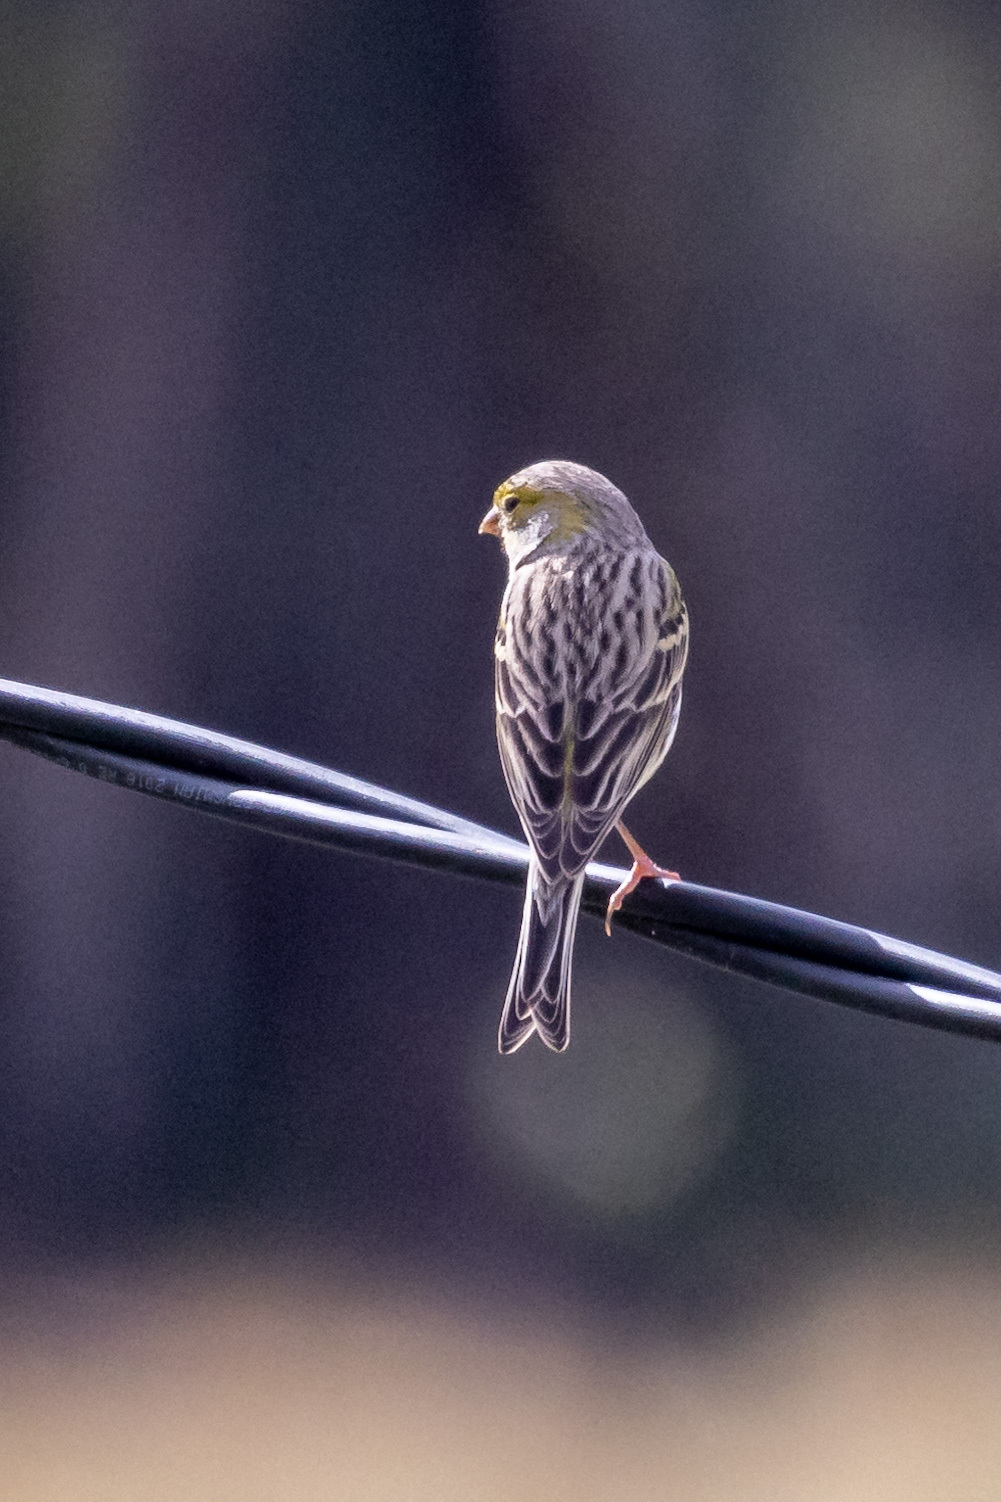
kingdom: Animalia
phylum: Chordata
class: Aves
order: Passeriformes
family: Fringillidae
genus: Serinus
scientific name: Serinus canaria
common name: Atlantic canary
